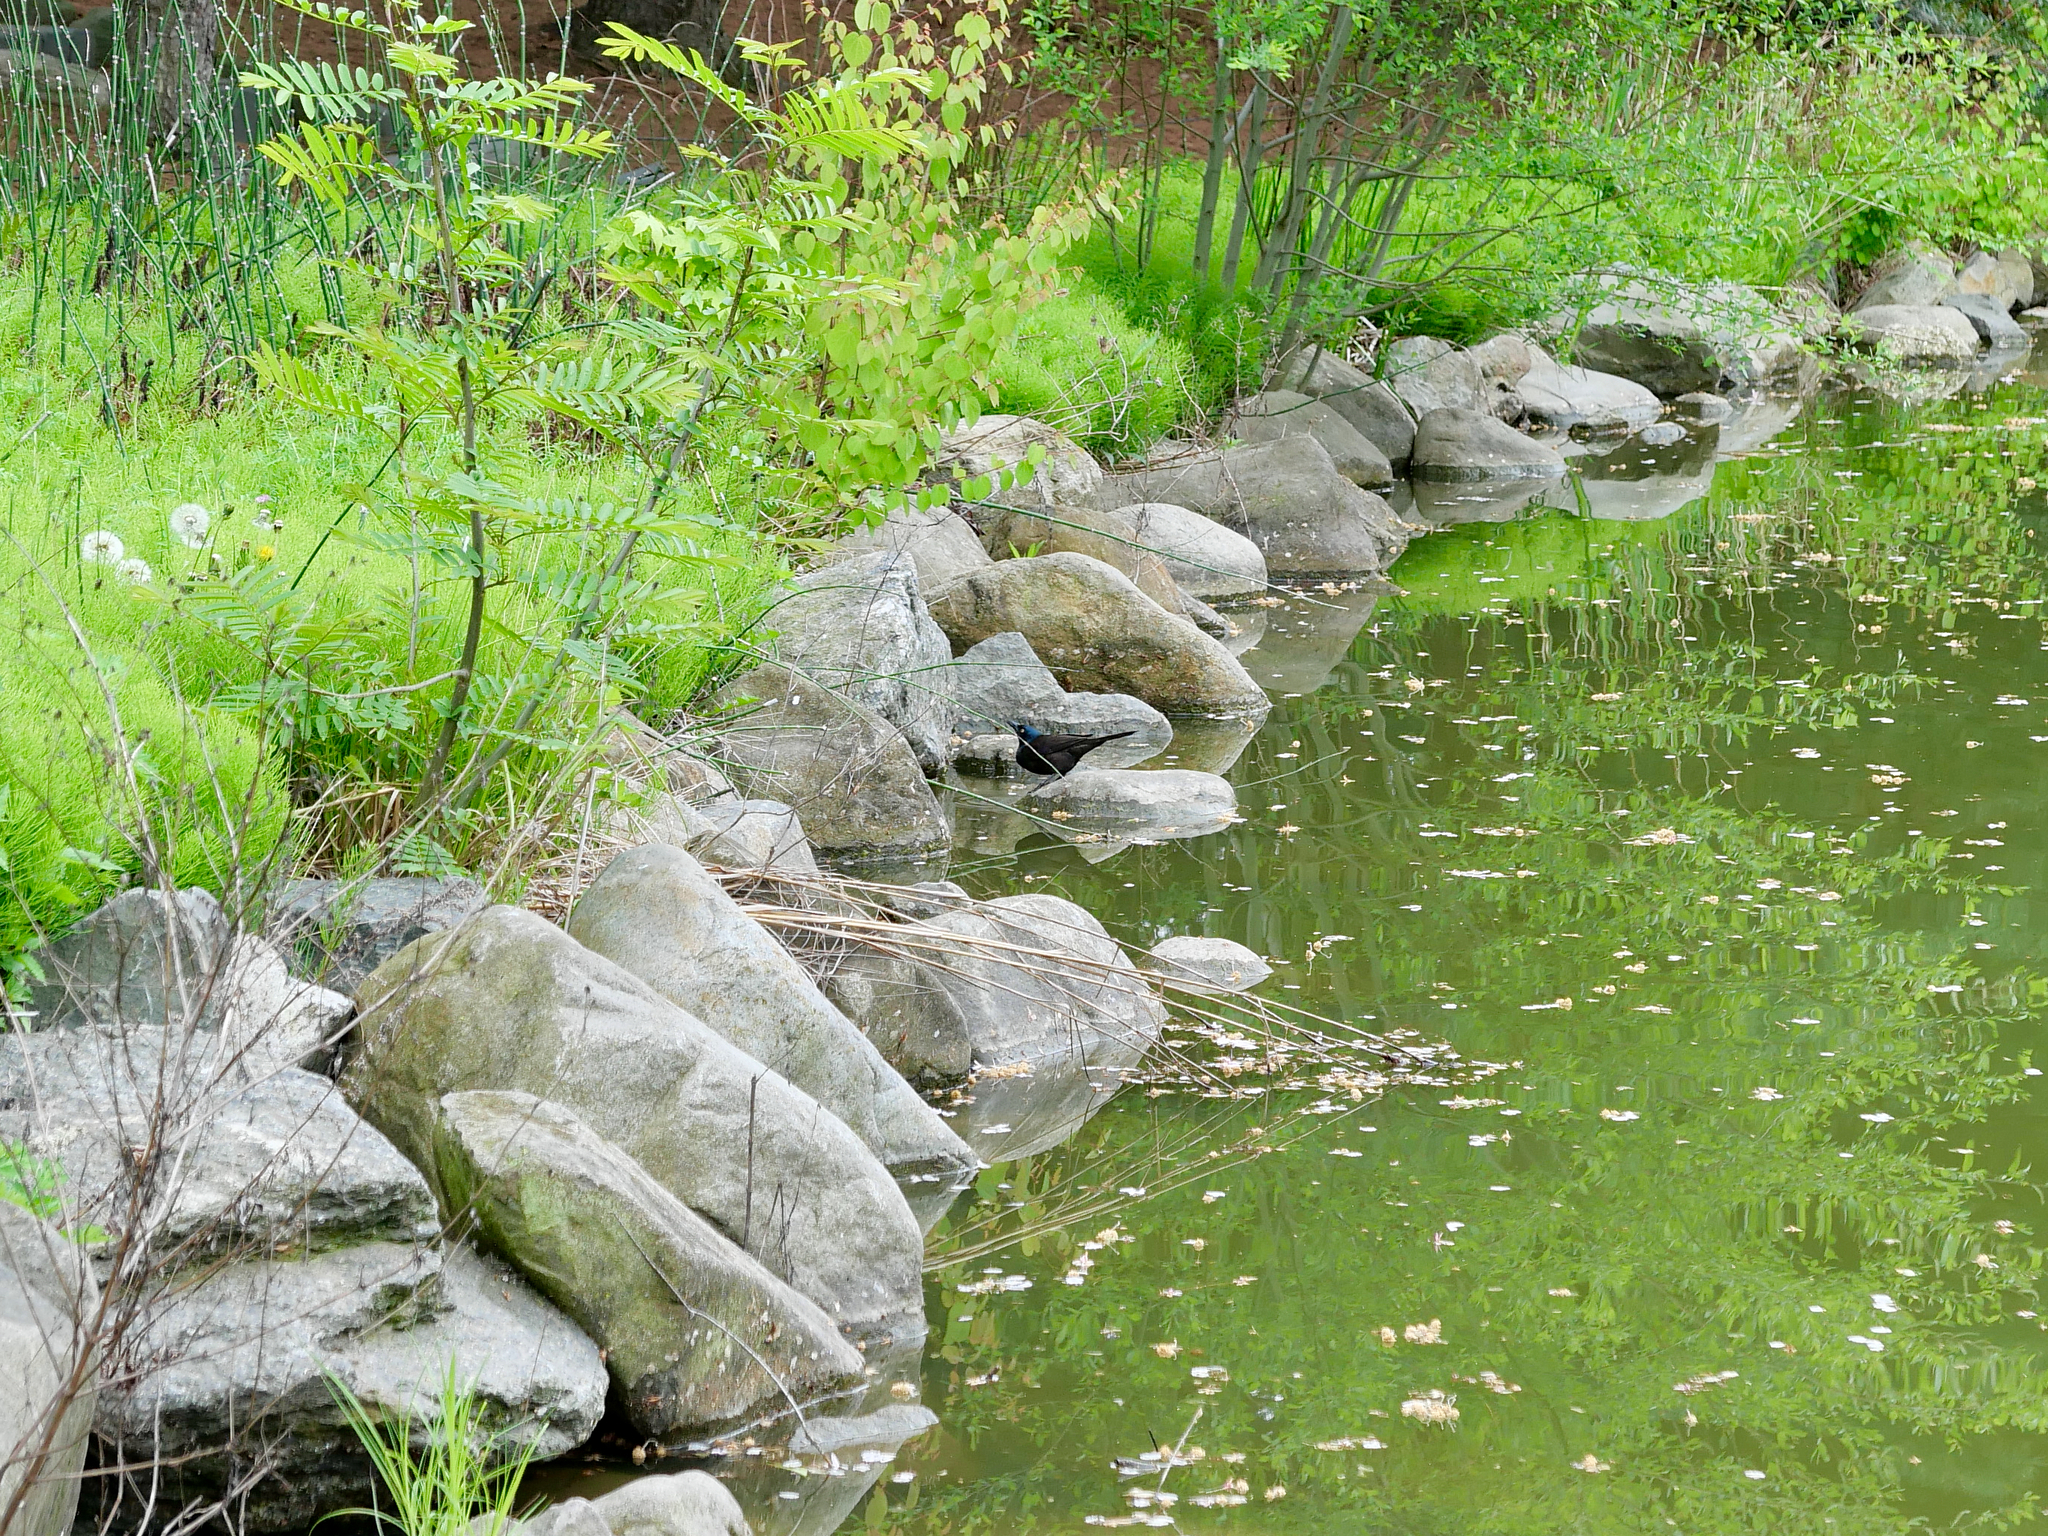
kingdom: Animalia
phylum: Chordata
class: Aves
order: Passeriformes
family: Icteridae
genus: Quiscalus
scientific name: Quiscalus quiscula
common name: Common grackle
